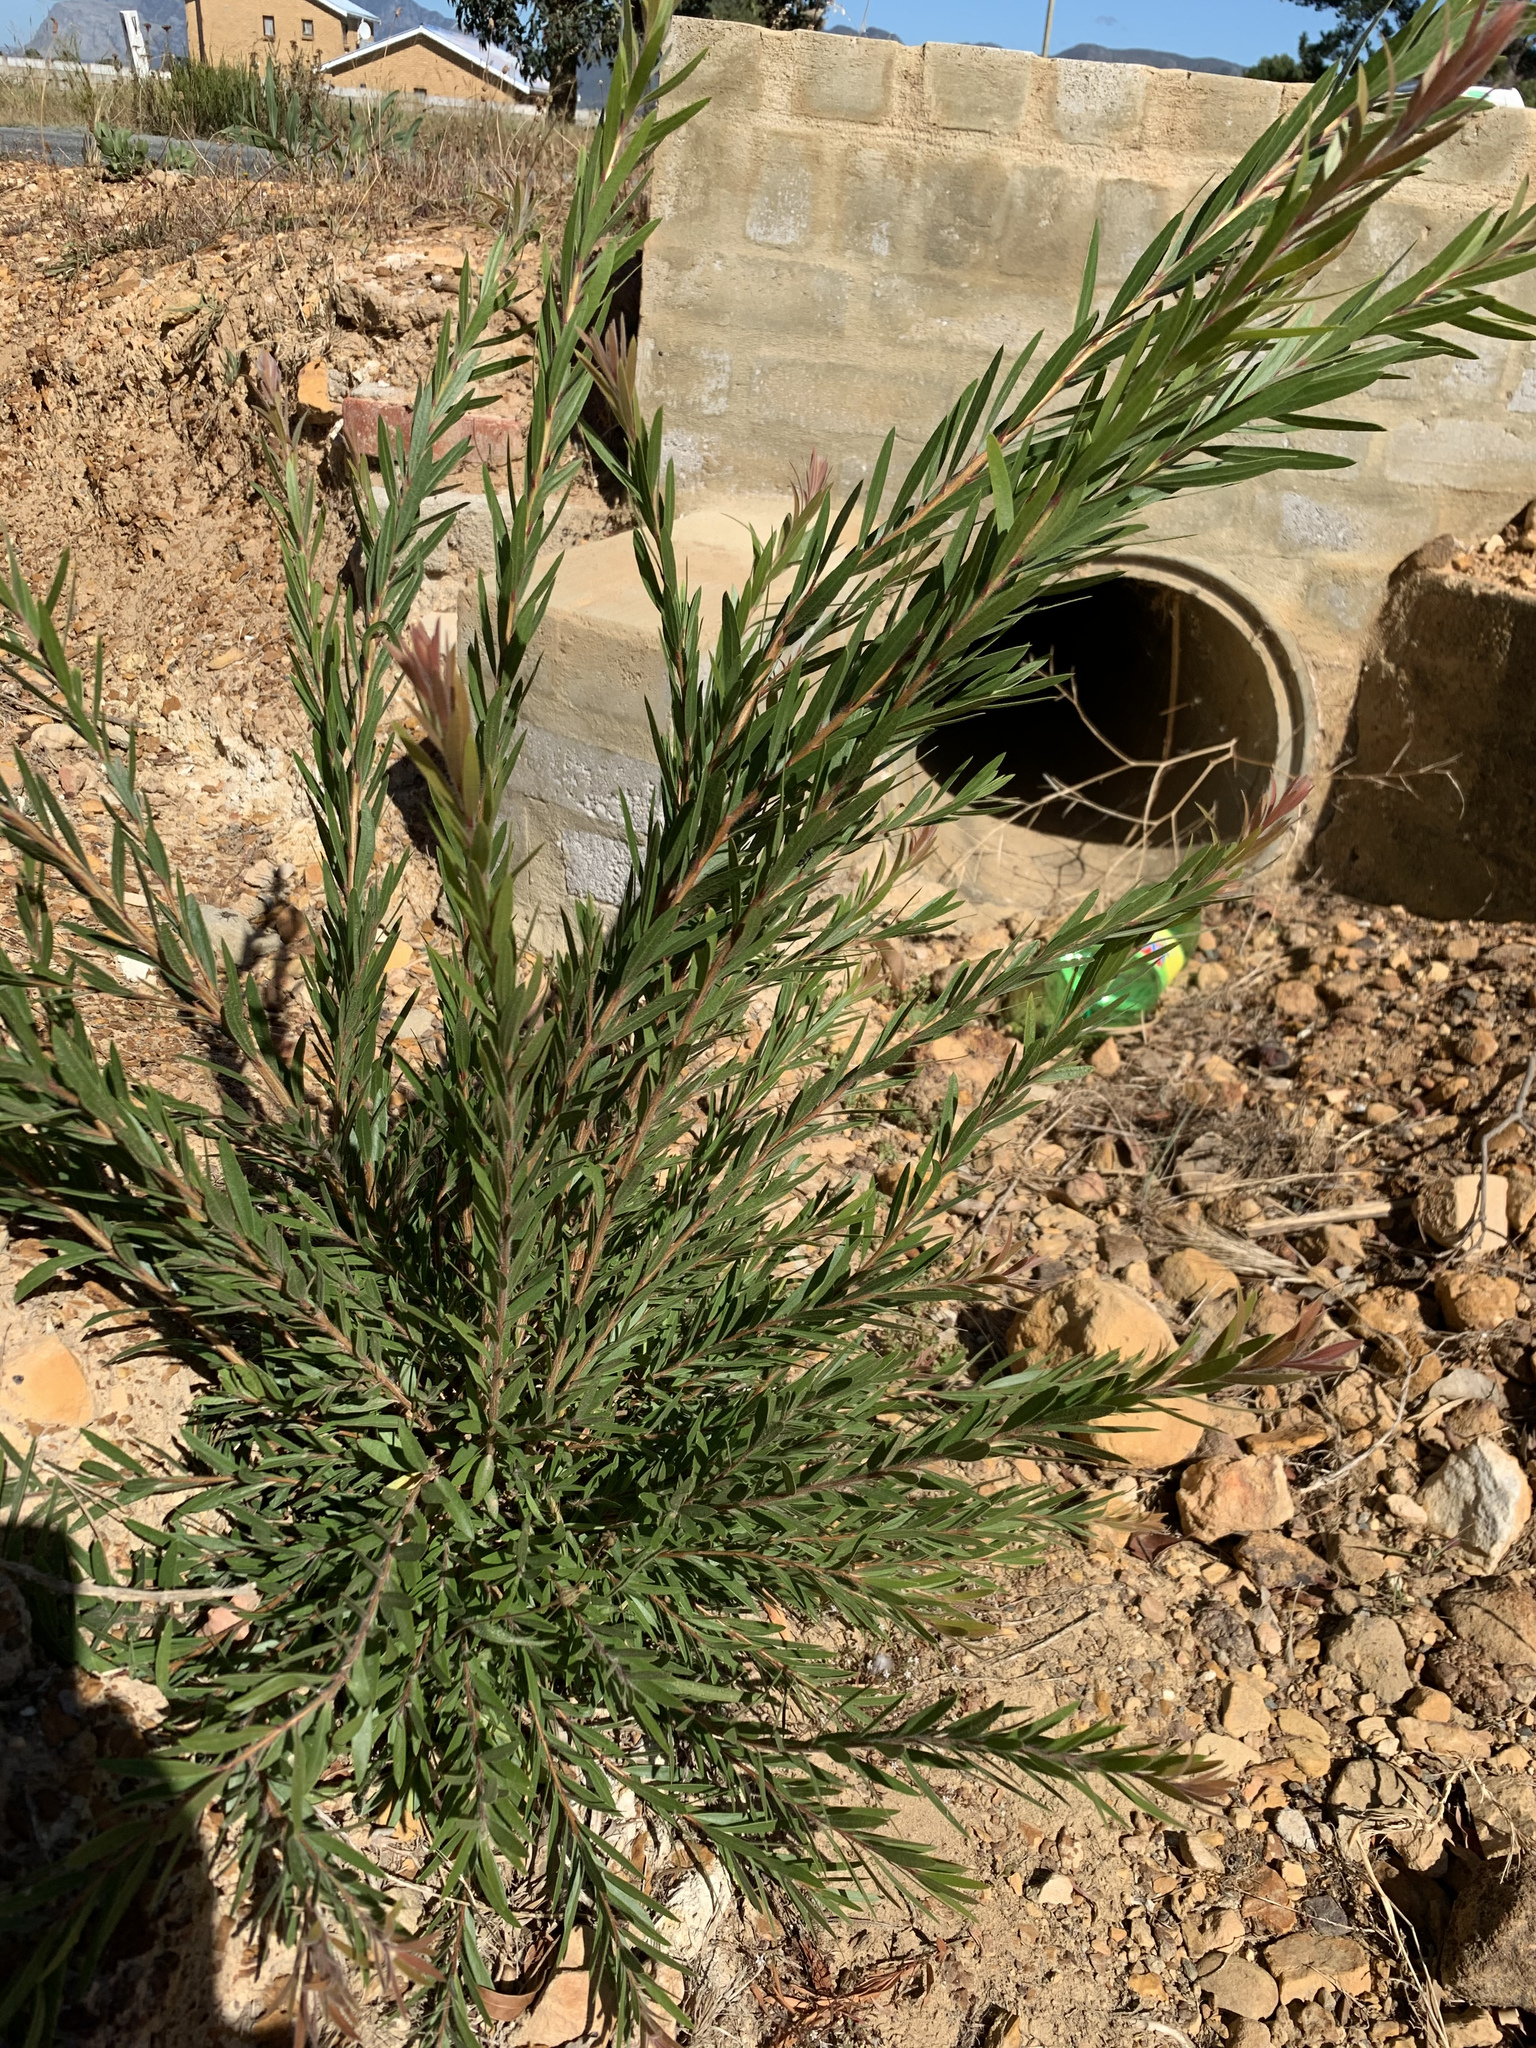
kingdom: Plantae
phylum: Tracheophyta
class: Magnoliopsida
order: Myrtales
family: Myrtaceae
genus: Callistemon
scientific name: Callistemon viminalis
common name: Drooping bottlebrush
